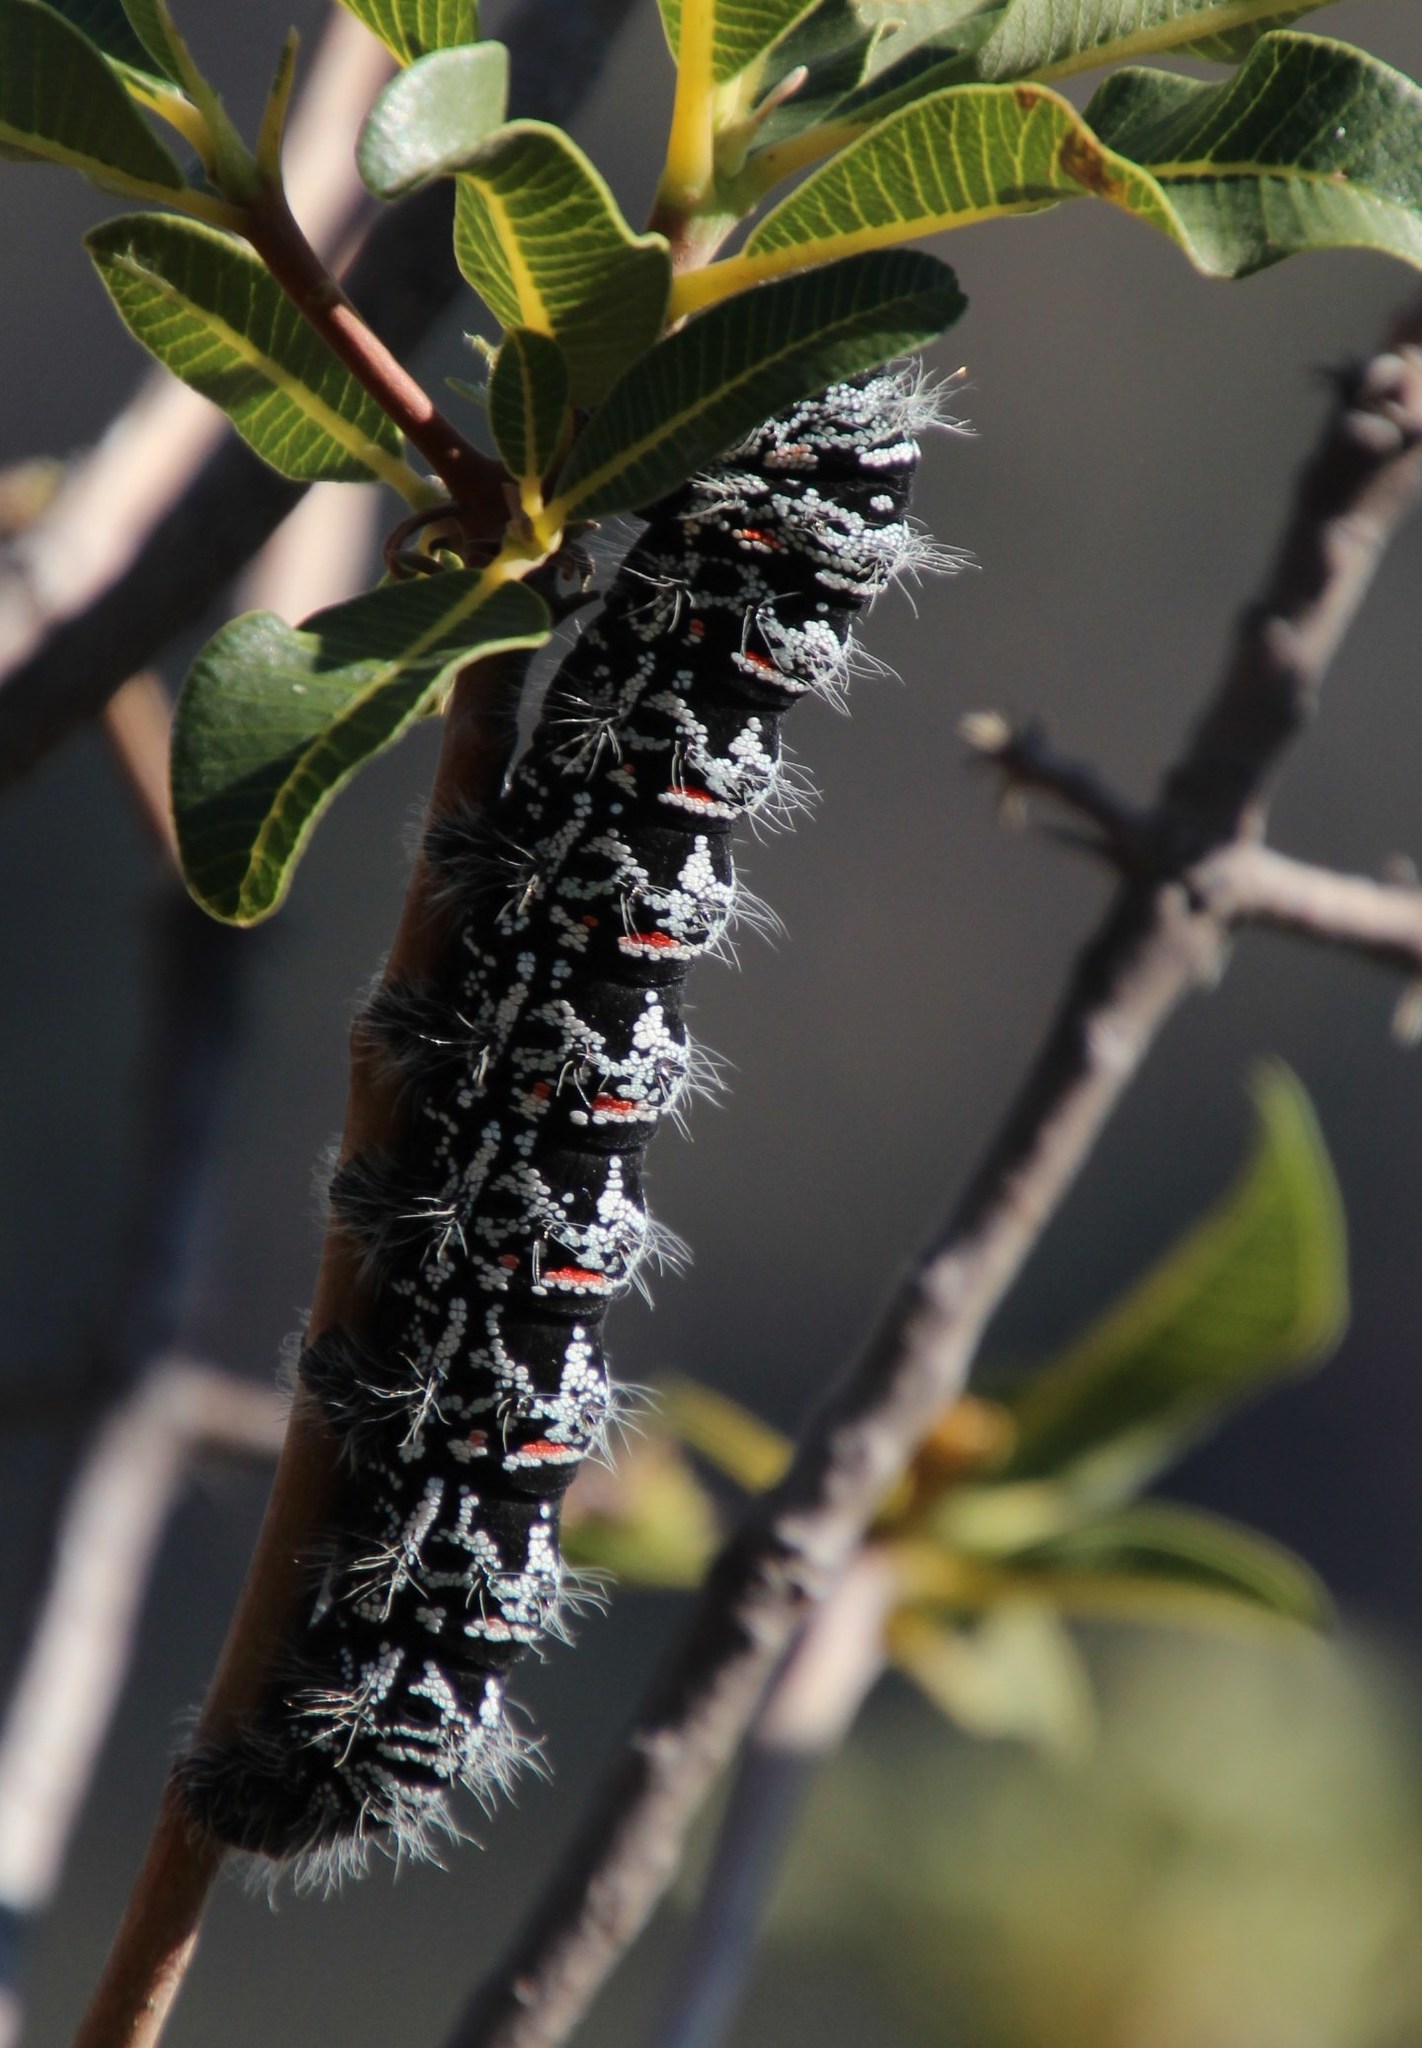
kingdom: Animalia
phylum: Arthropoda
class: Insecta
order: Lepidoptera
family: Saturniidae
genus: Gonimbrasia
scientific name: Gonimbrasia tyrrhea
